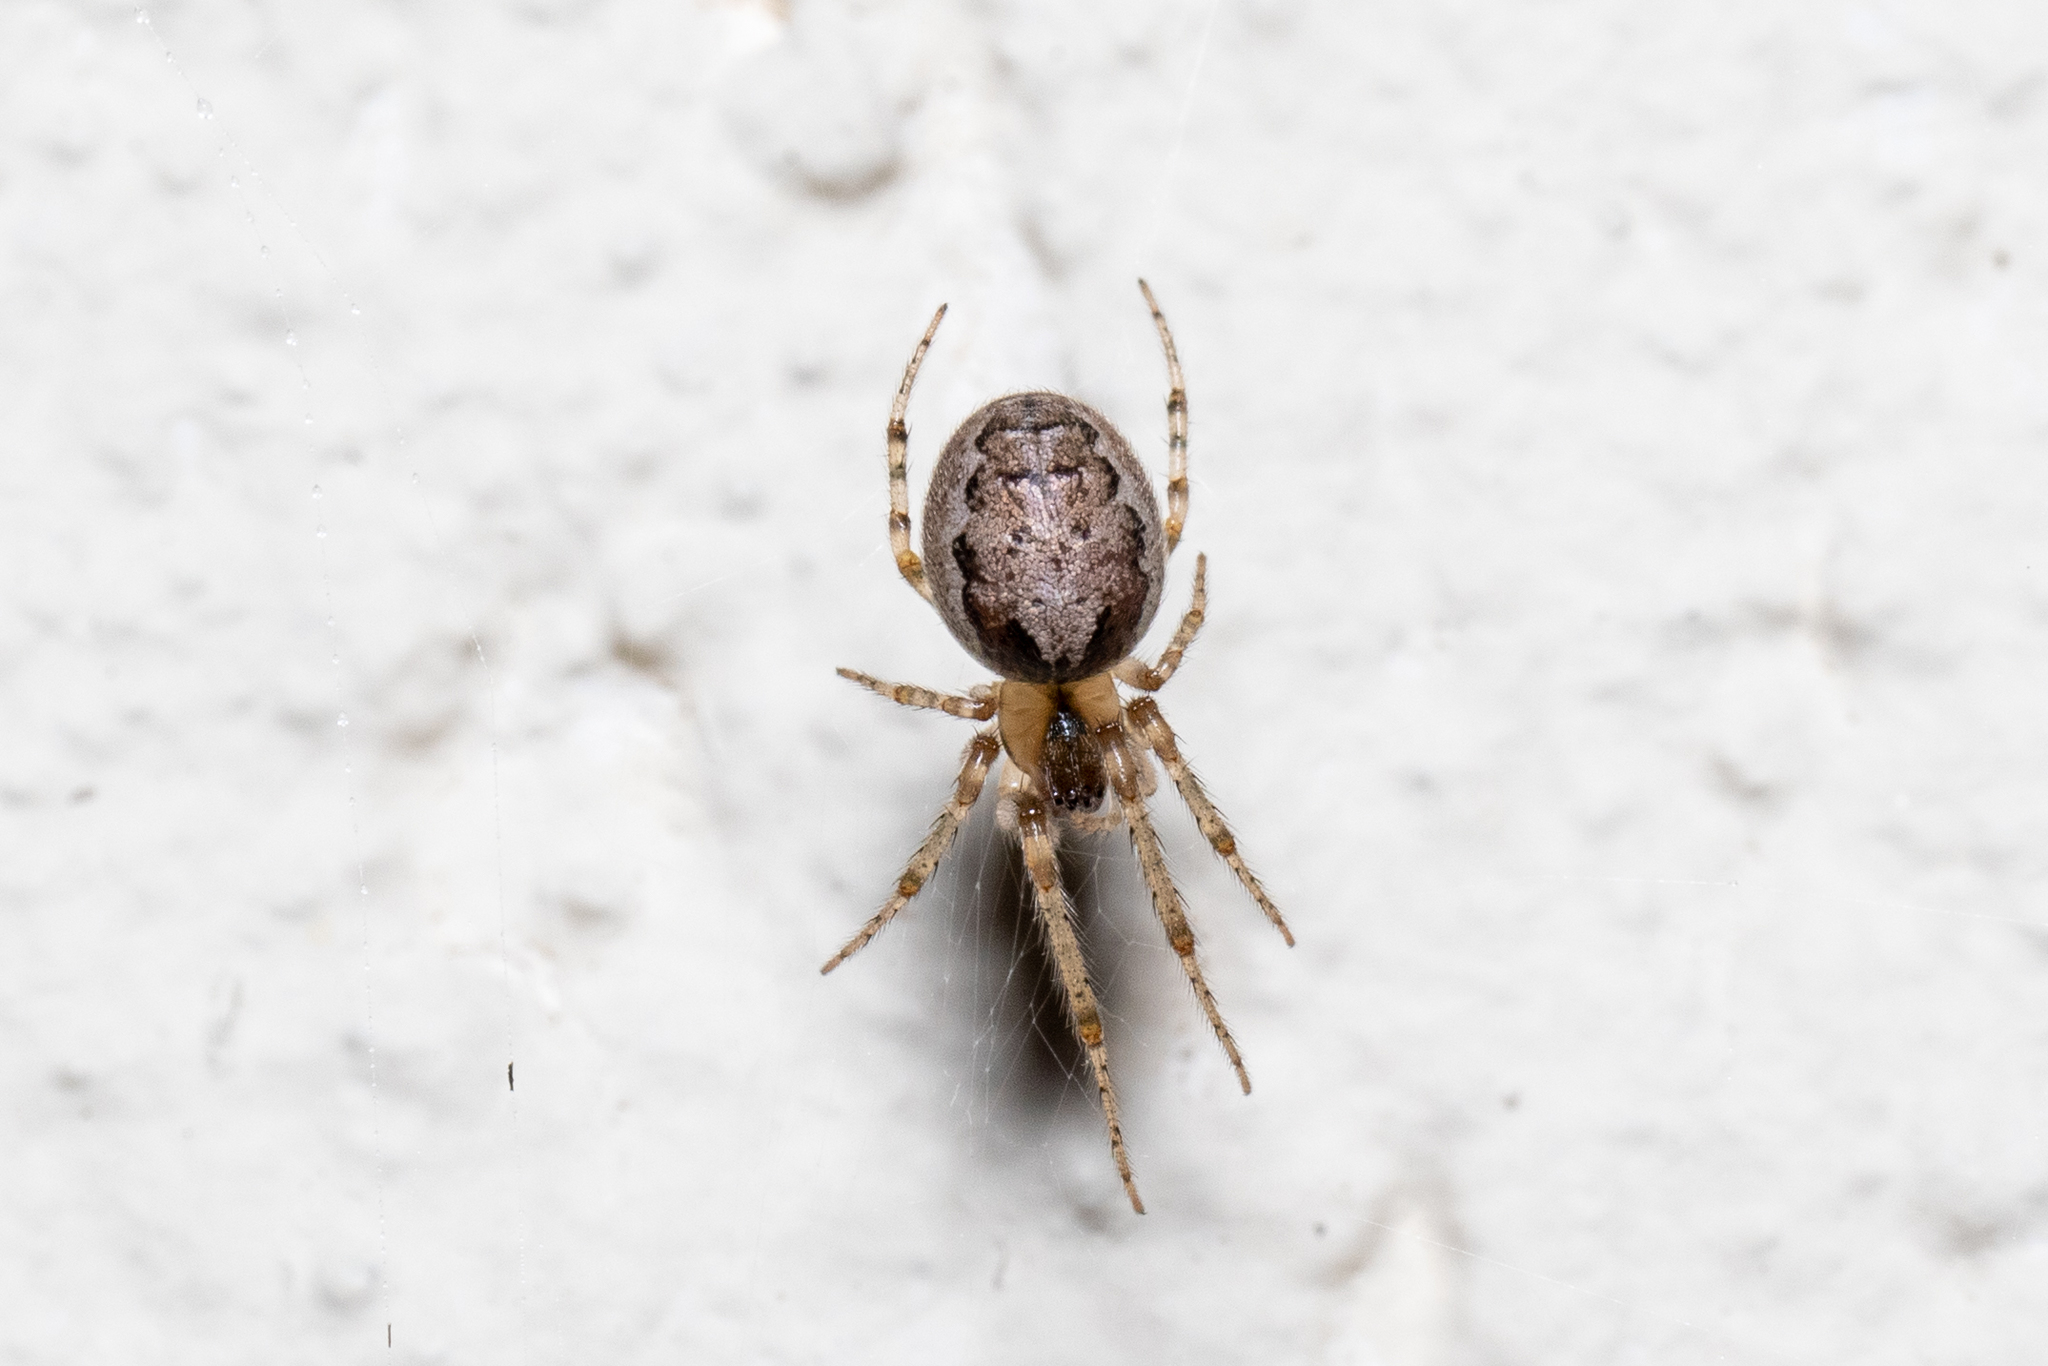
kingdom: Animalia
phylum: Arthropoda
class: Arachnida
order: Araneae
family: Araneidae
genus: Zygiella
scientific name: Zygiella x-notata
